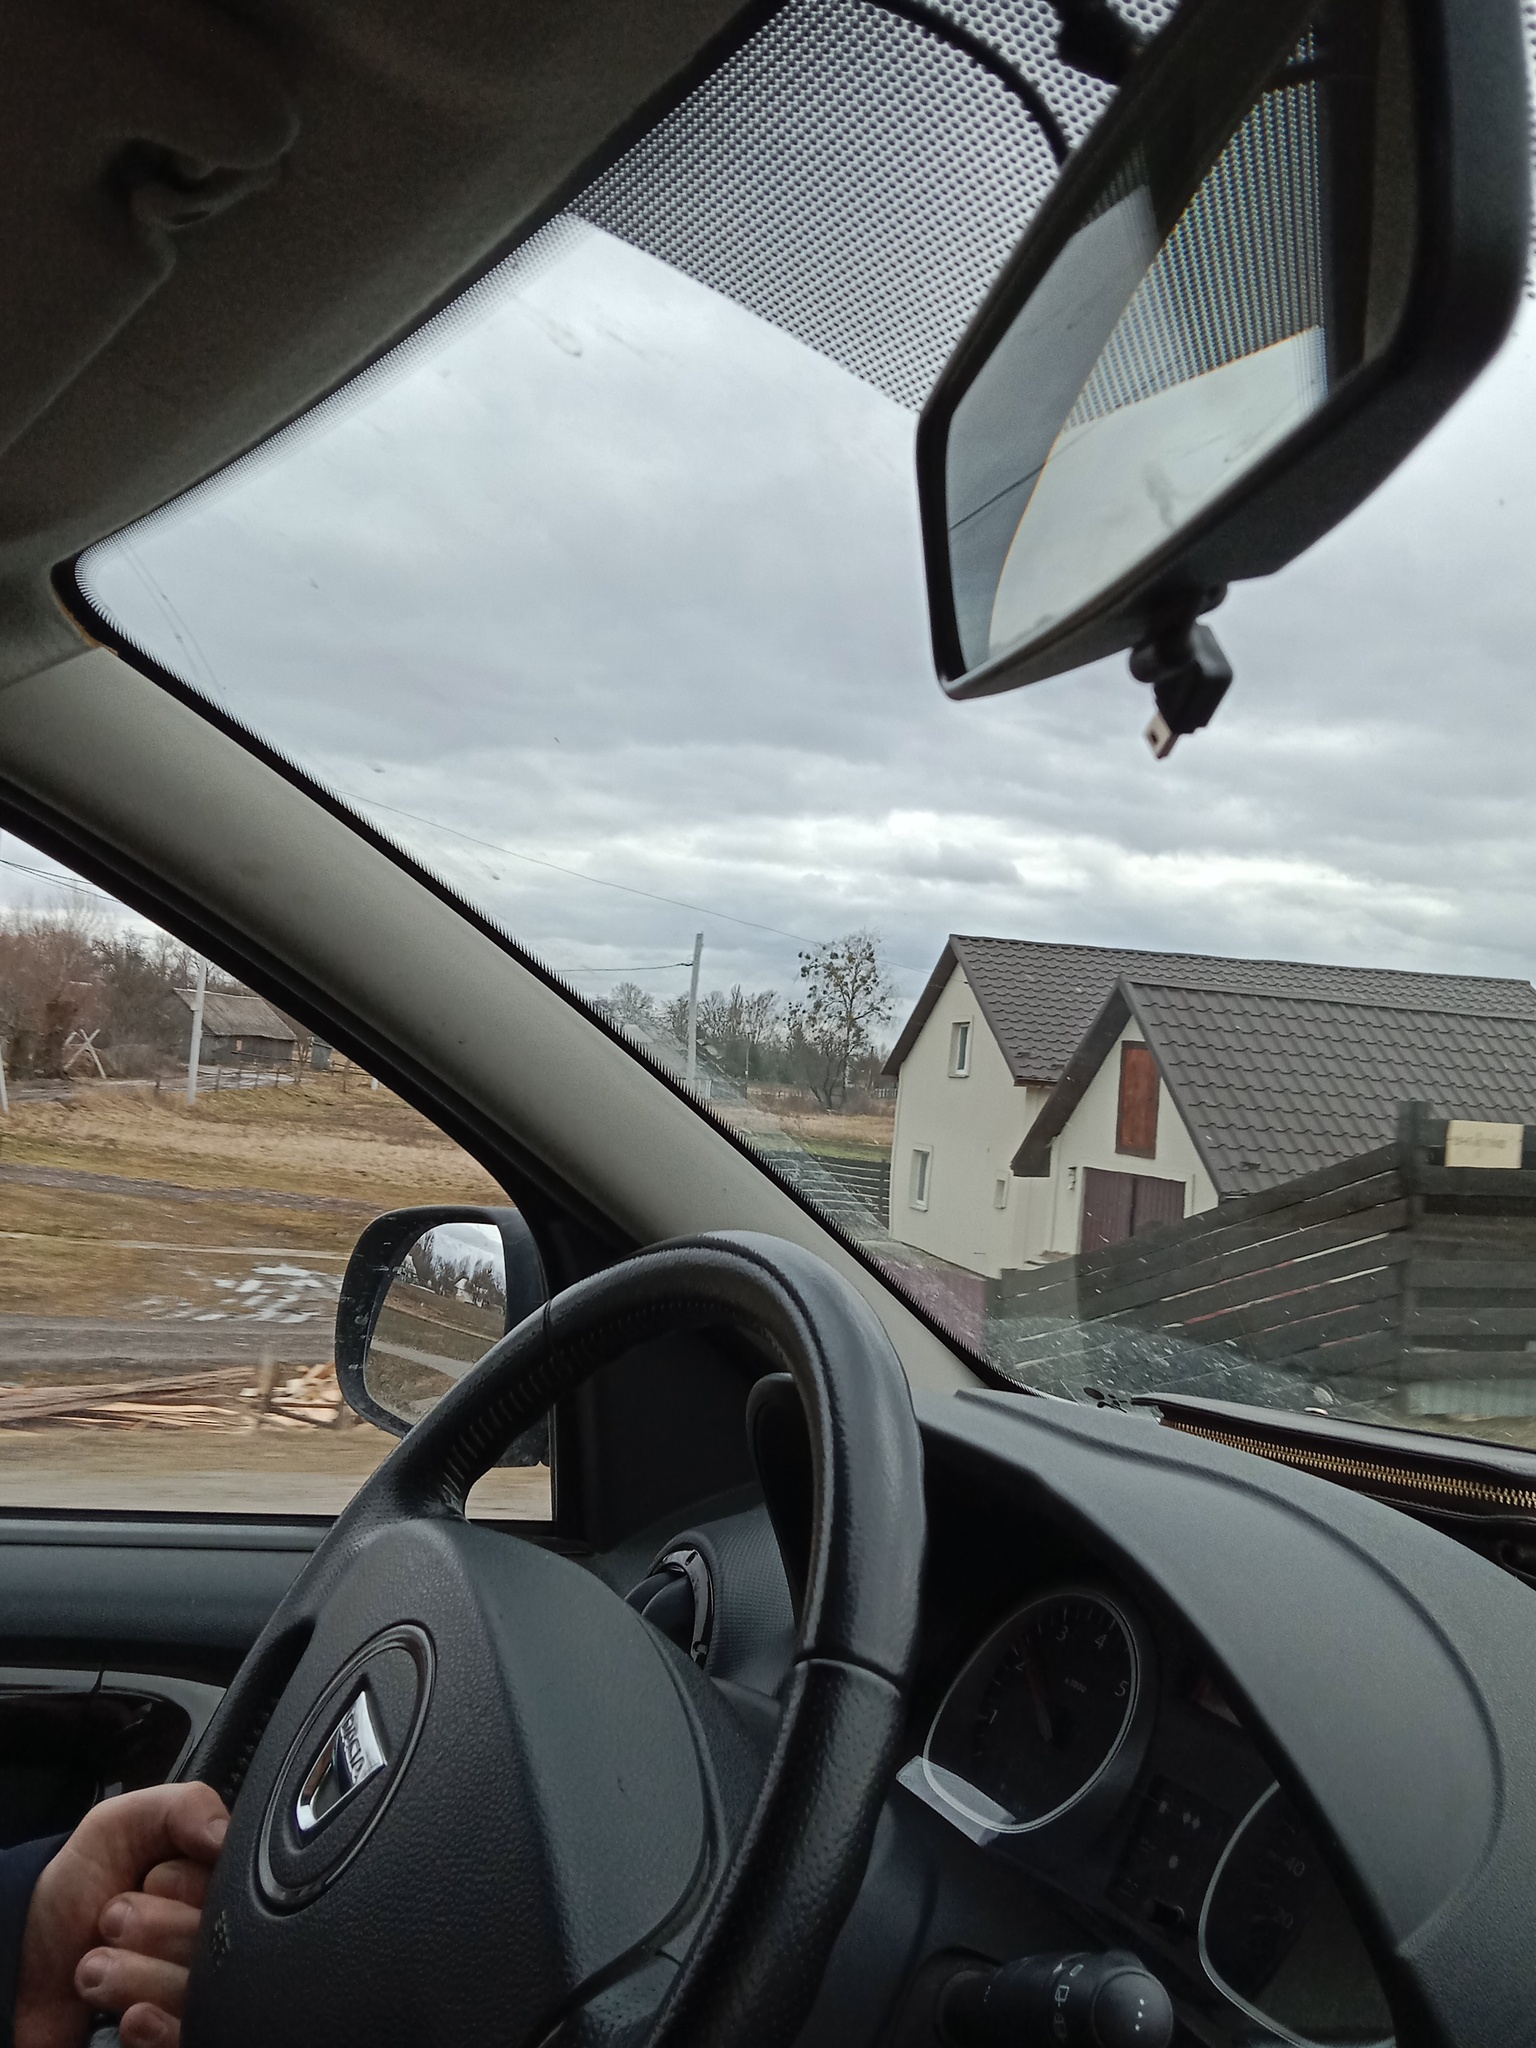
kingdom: Plantae
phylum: Tracheophyta
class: Magnoliopsida
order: Santalales
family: Viscaceae
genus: Viscum
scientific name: Viscum album
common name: Mistletoe
